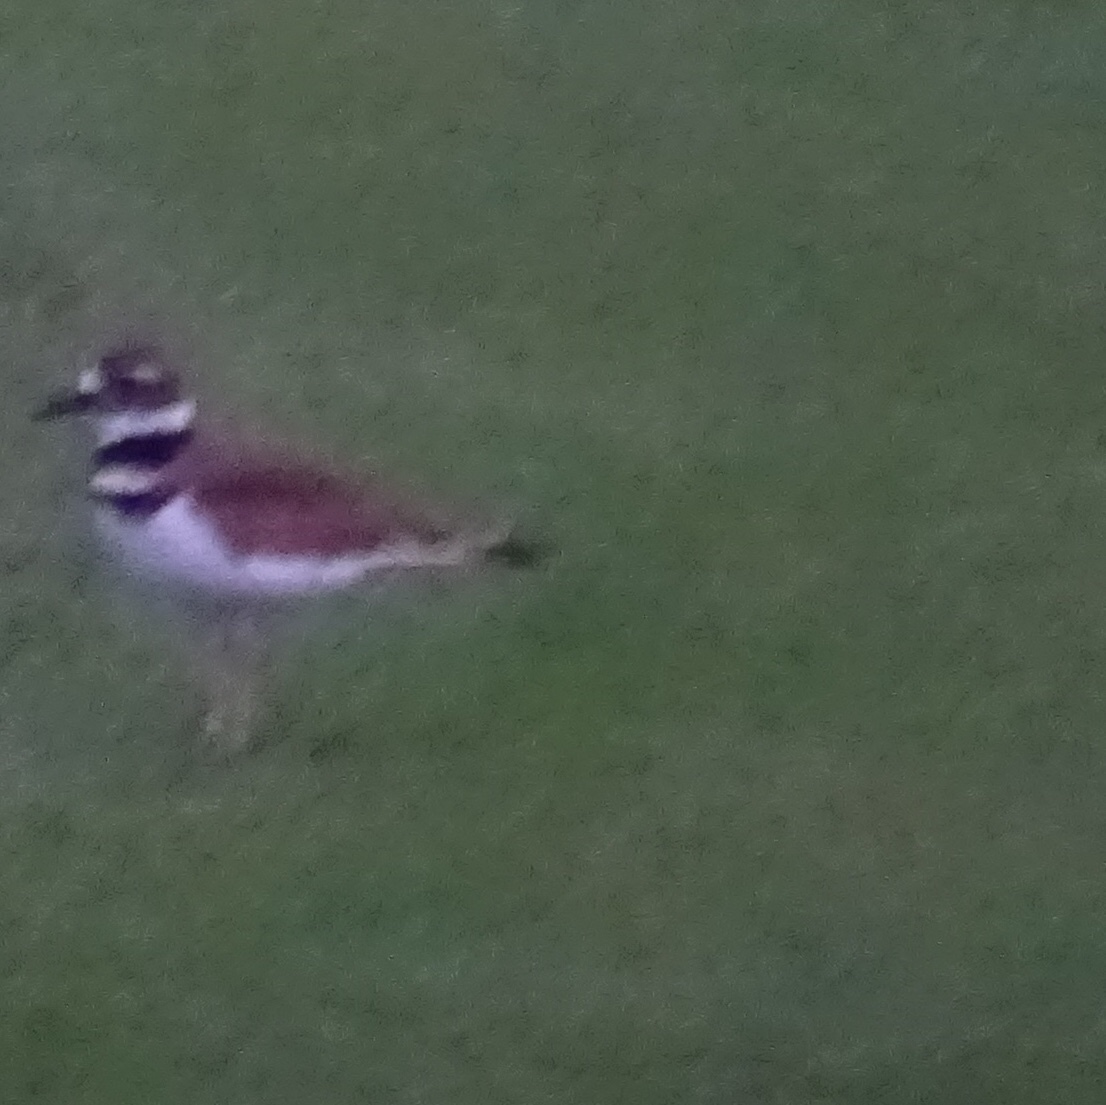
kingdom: Animalia
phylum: Chordata
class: Aves
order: Charadriiformes
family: Charadriidae
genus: Charadrius
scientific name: Charadrius vociferus
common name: Killdeer
